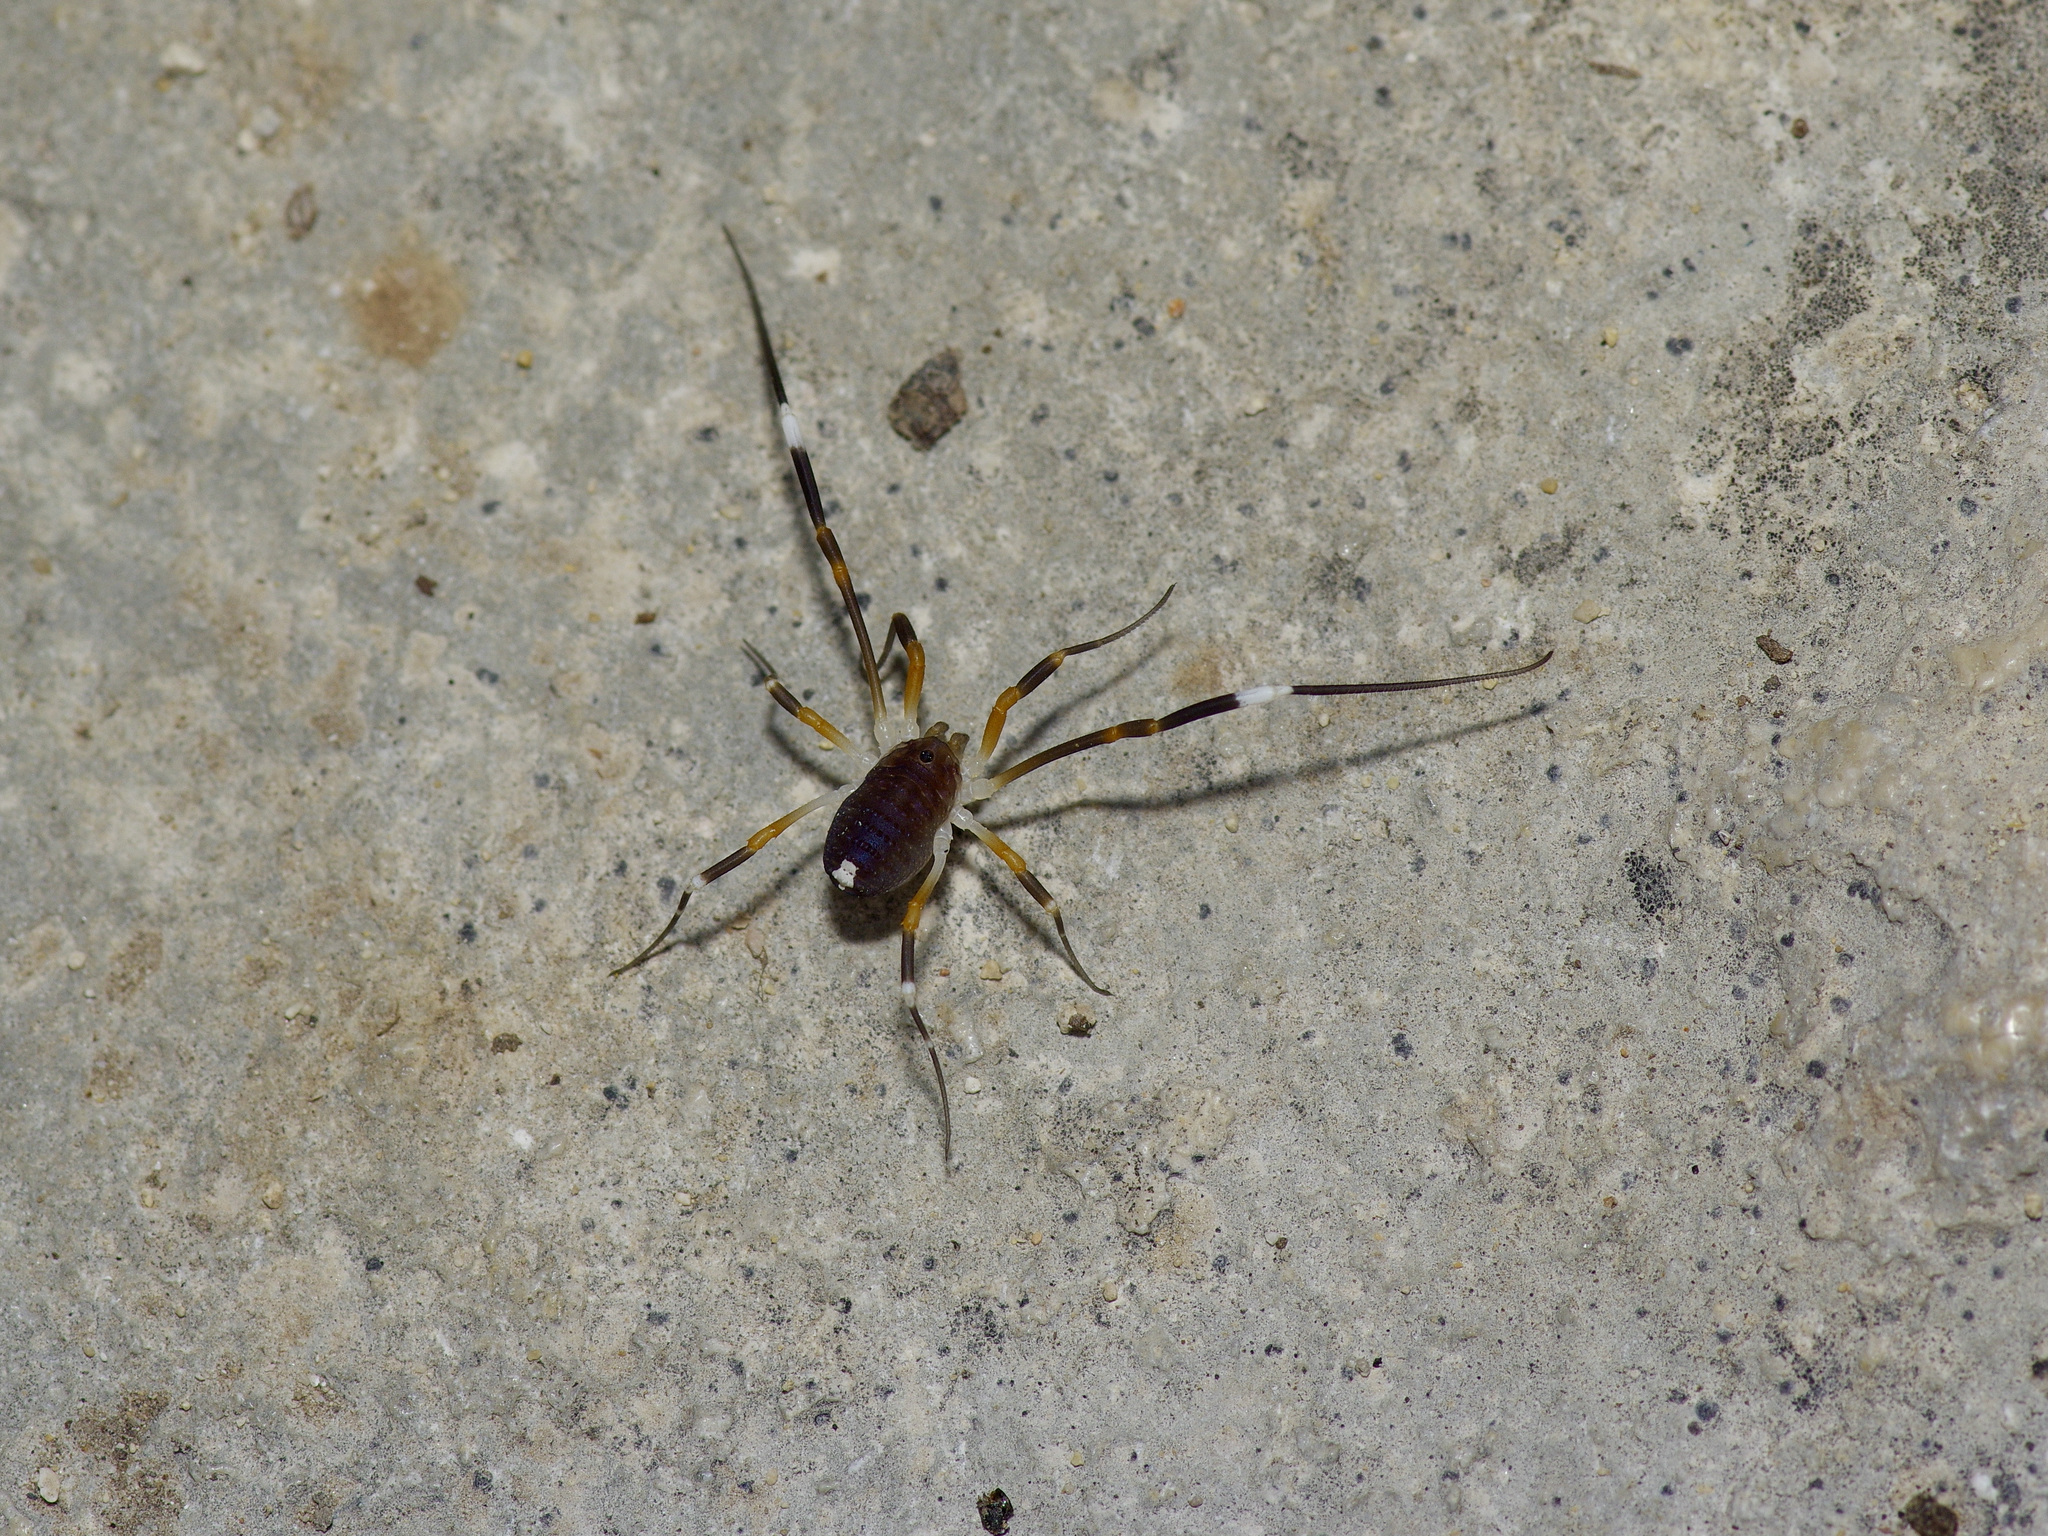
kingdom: Animalia
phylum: Arthropoda
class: Arachnida
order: Opiliones
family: Globipedidae
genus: Dalquestia
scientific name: Dalquestia formosa
